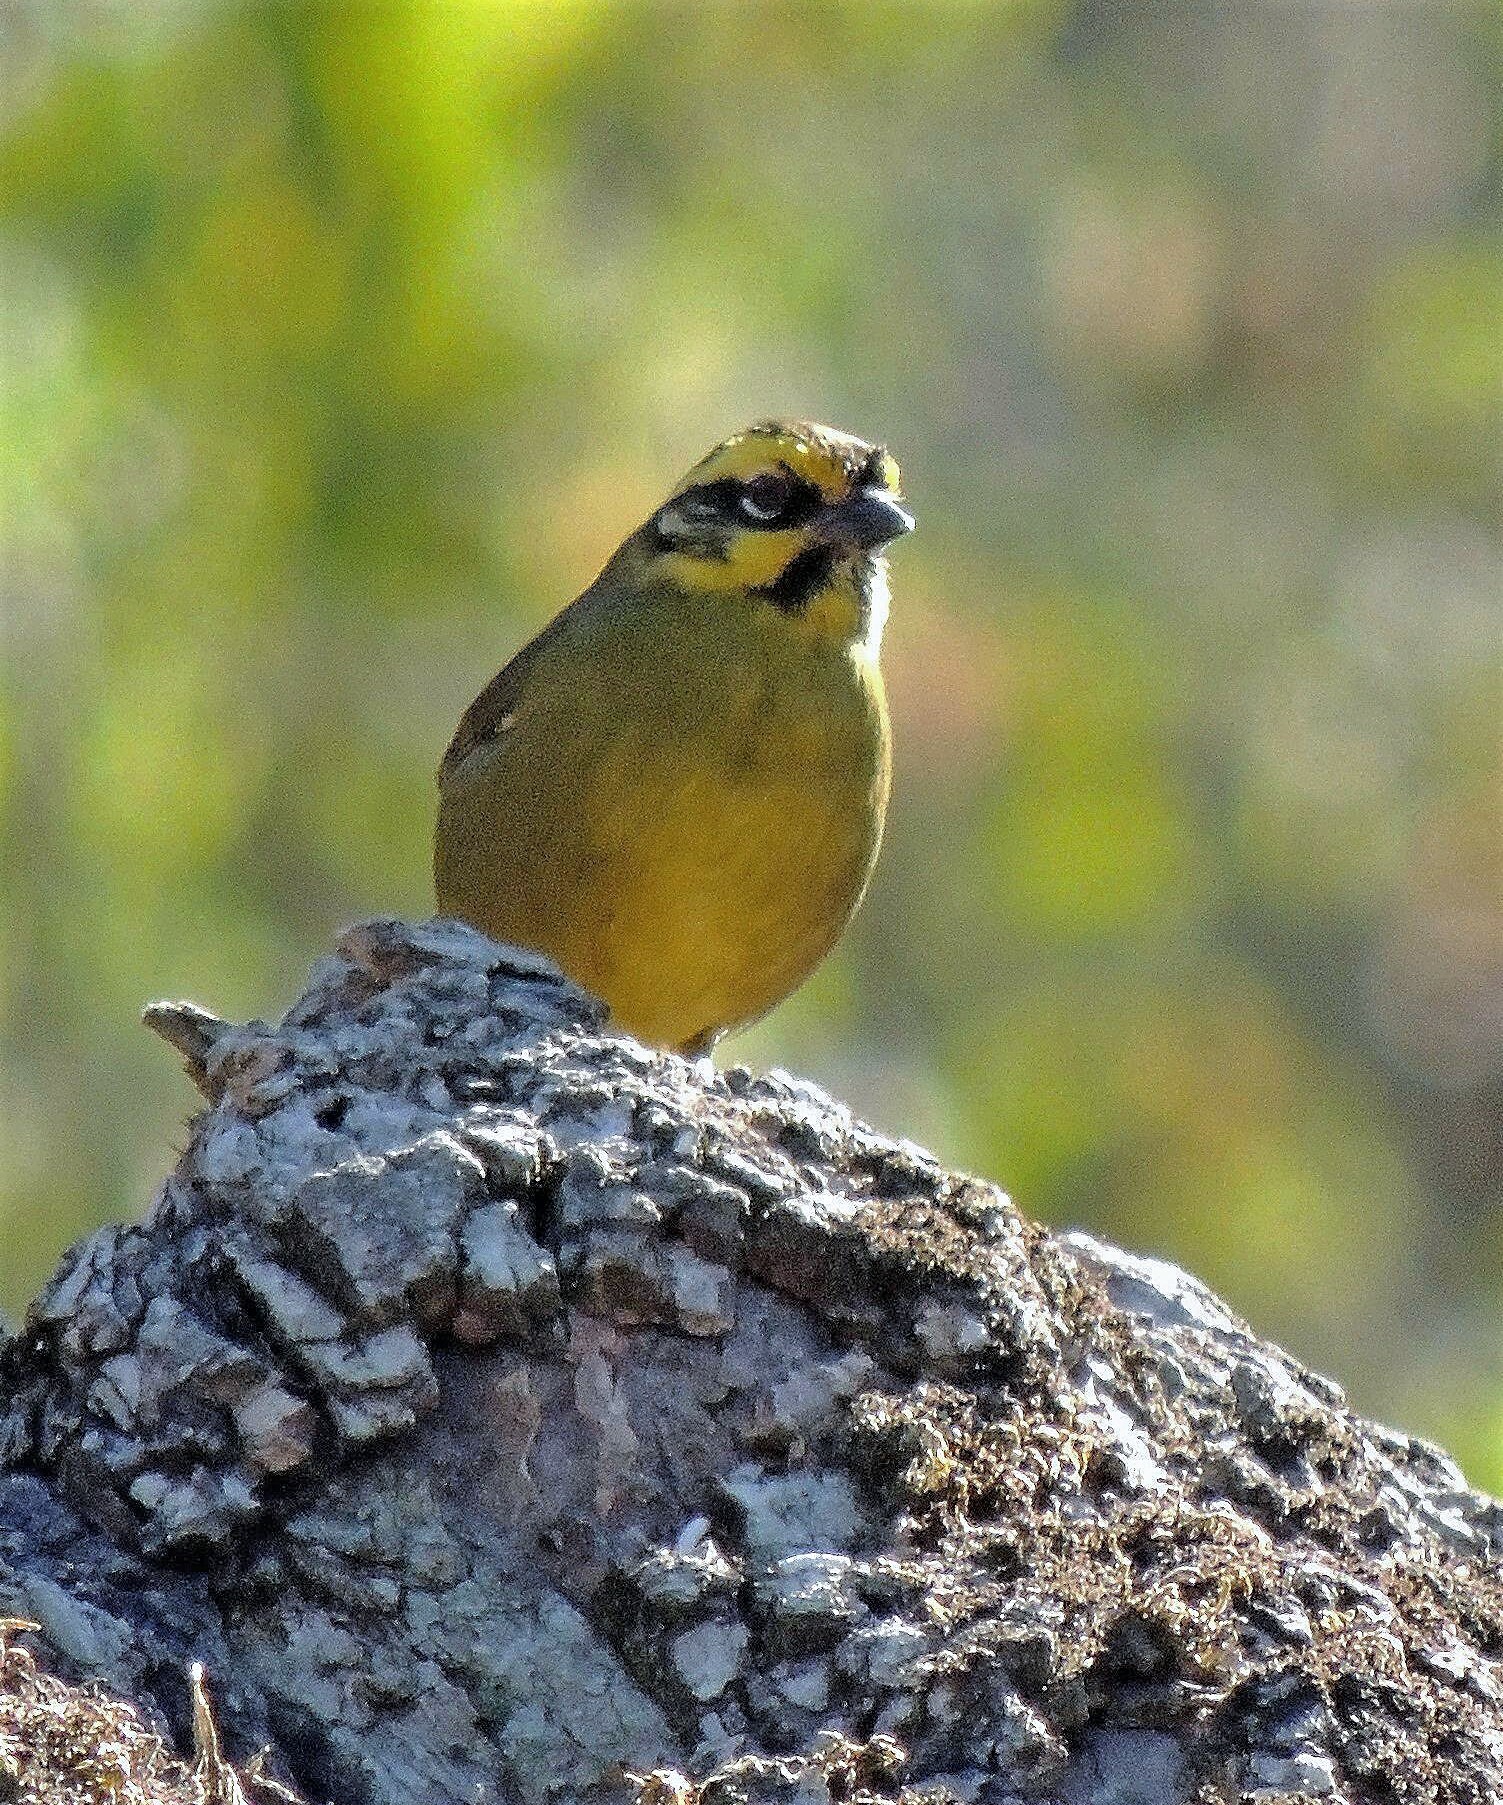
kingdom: Animalia
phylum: Chordata
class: Aves
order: Passeriformes
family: Passerellidae
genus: Atlapetes
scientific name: Atlapetes citrinellus
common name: Yellow-striped brushfinch
